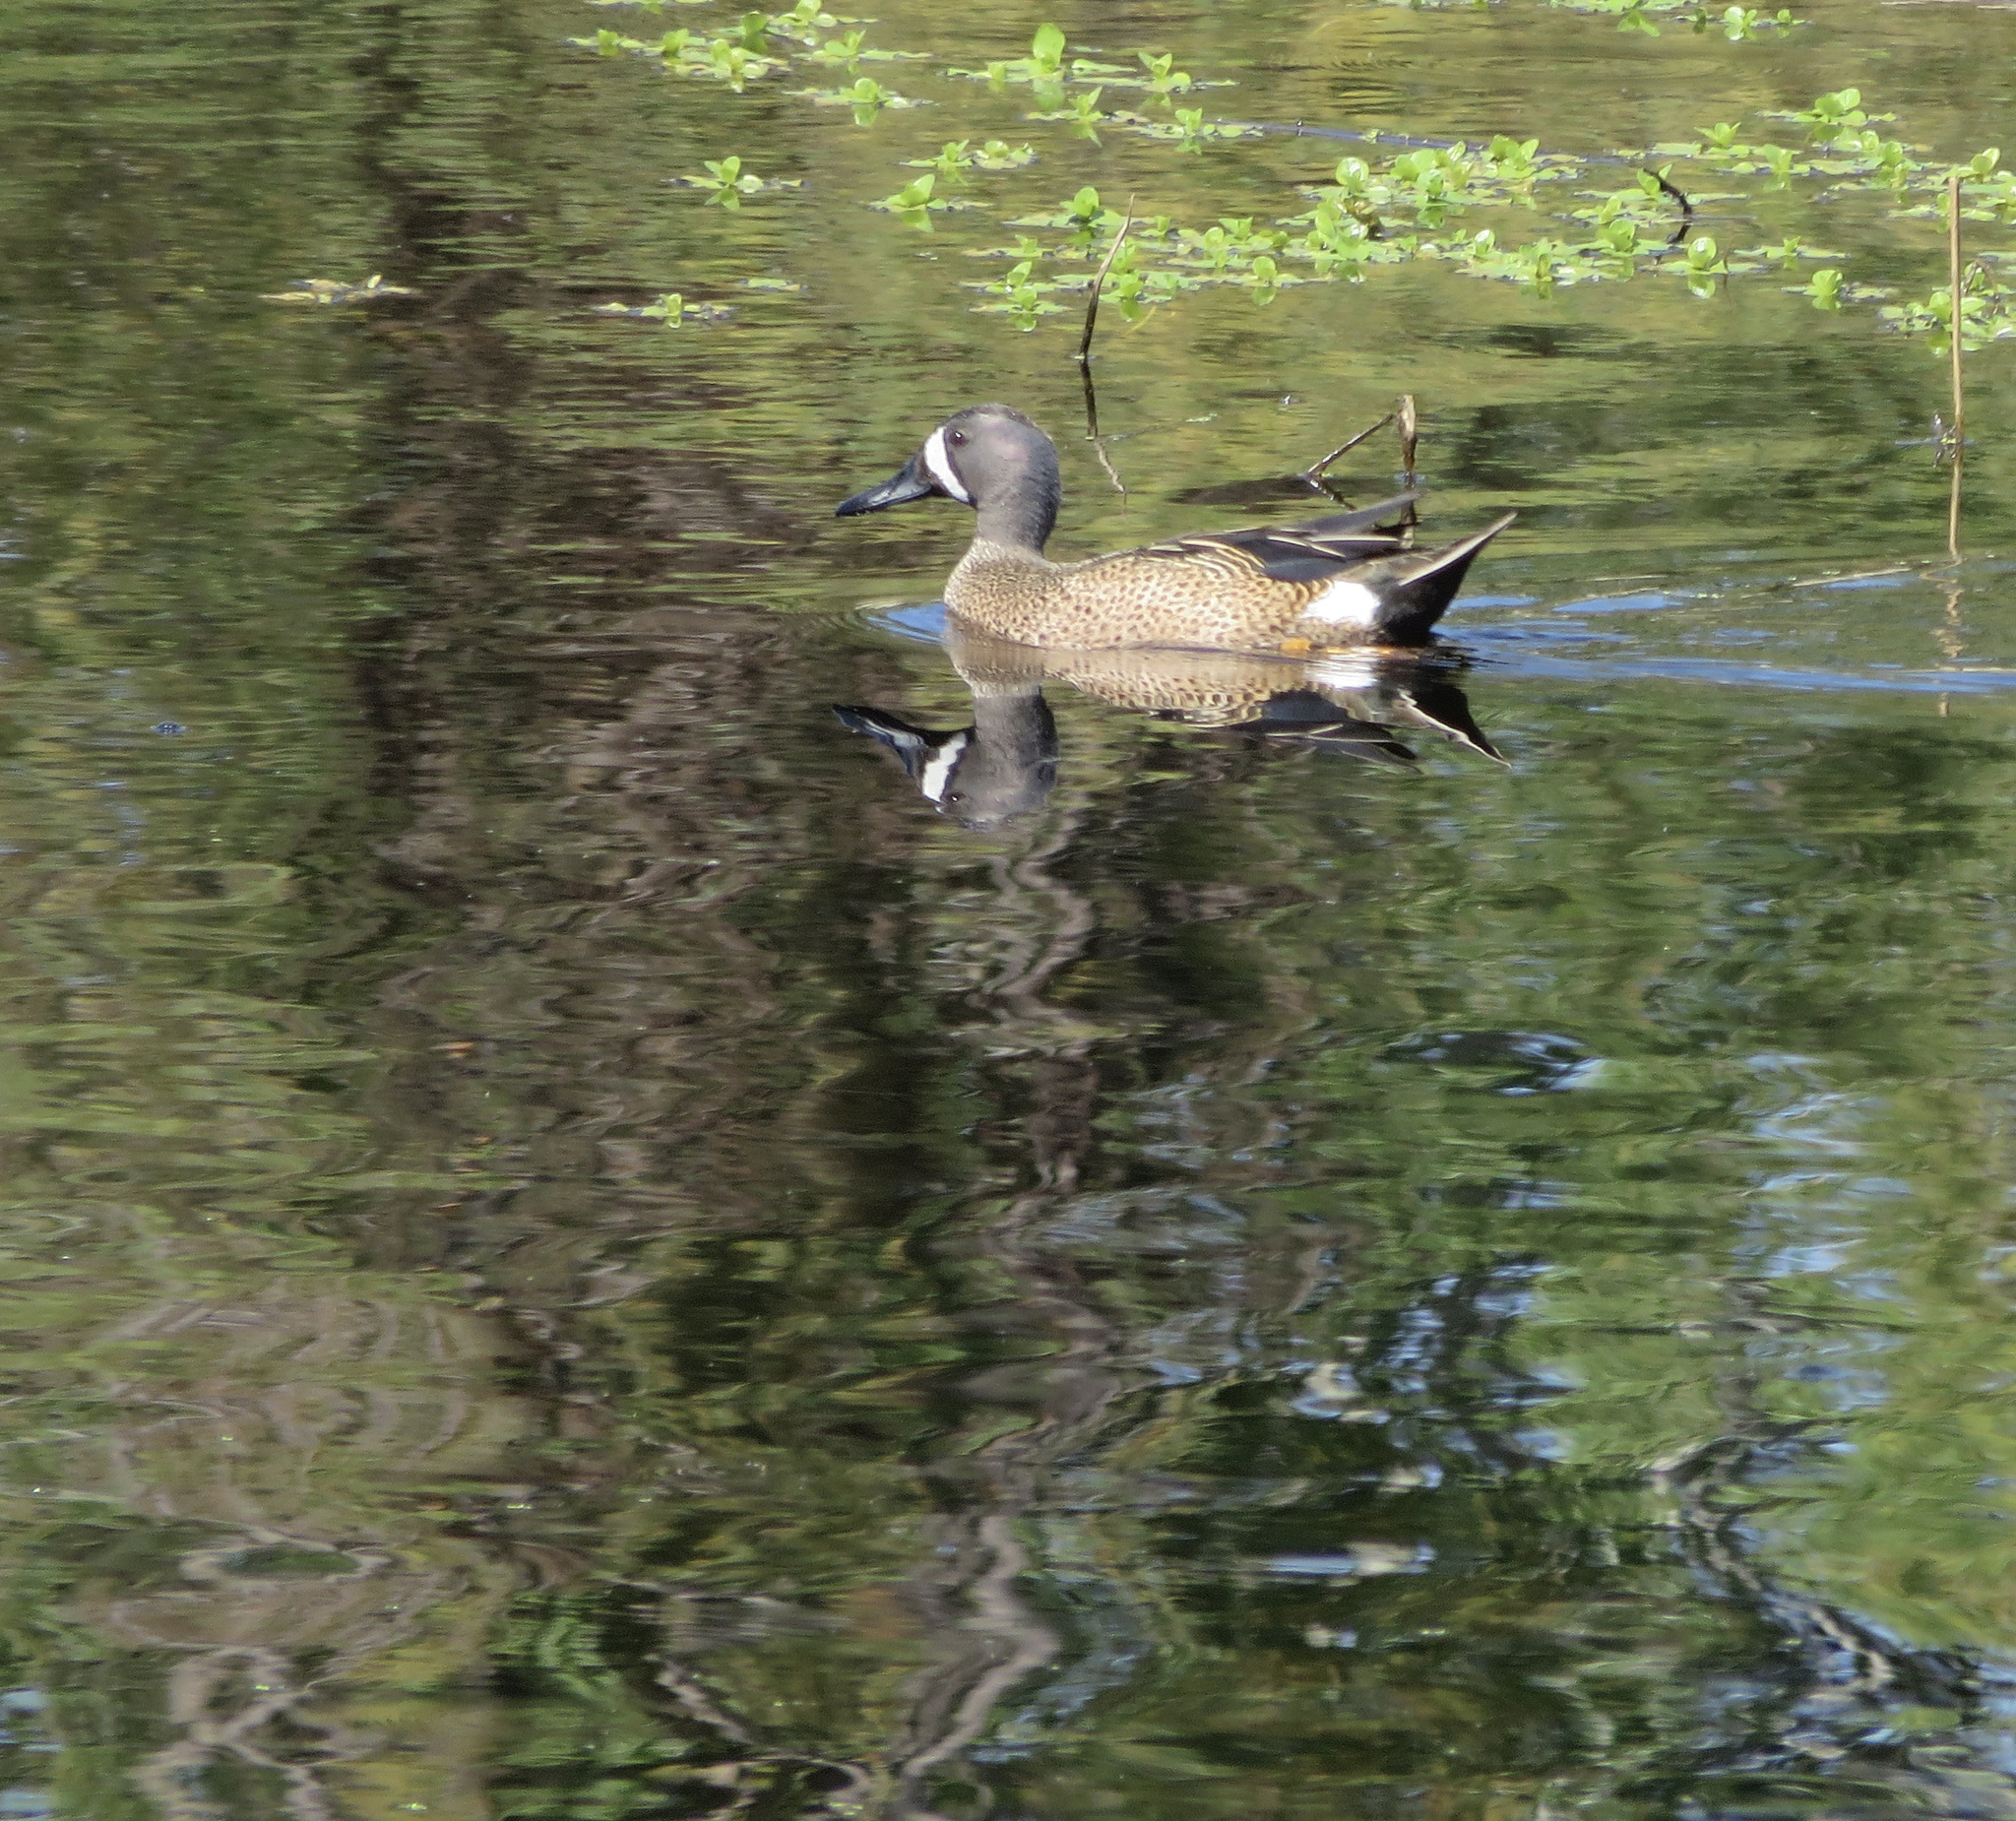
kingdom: Animalia
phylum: Chordata
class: Aves
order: Anseriformes
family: Anatidae
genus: Spatula
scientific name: Spatula discors
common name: Blue-winged teal
